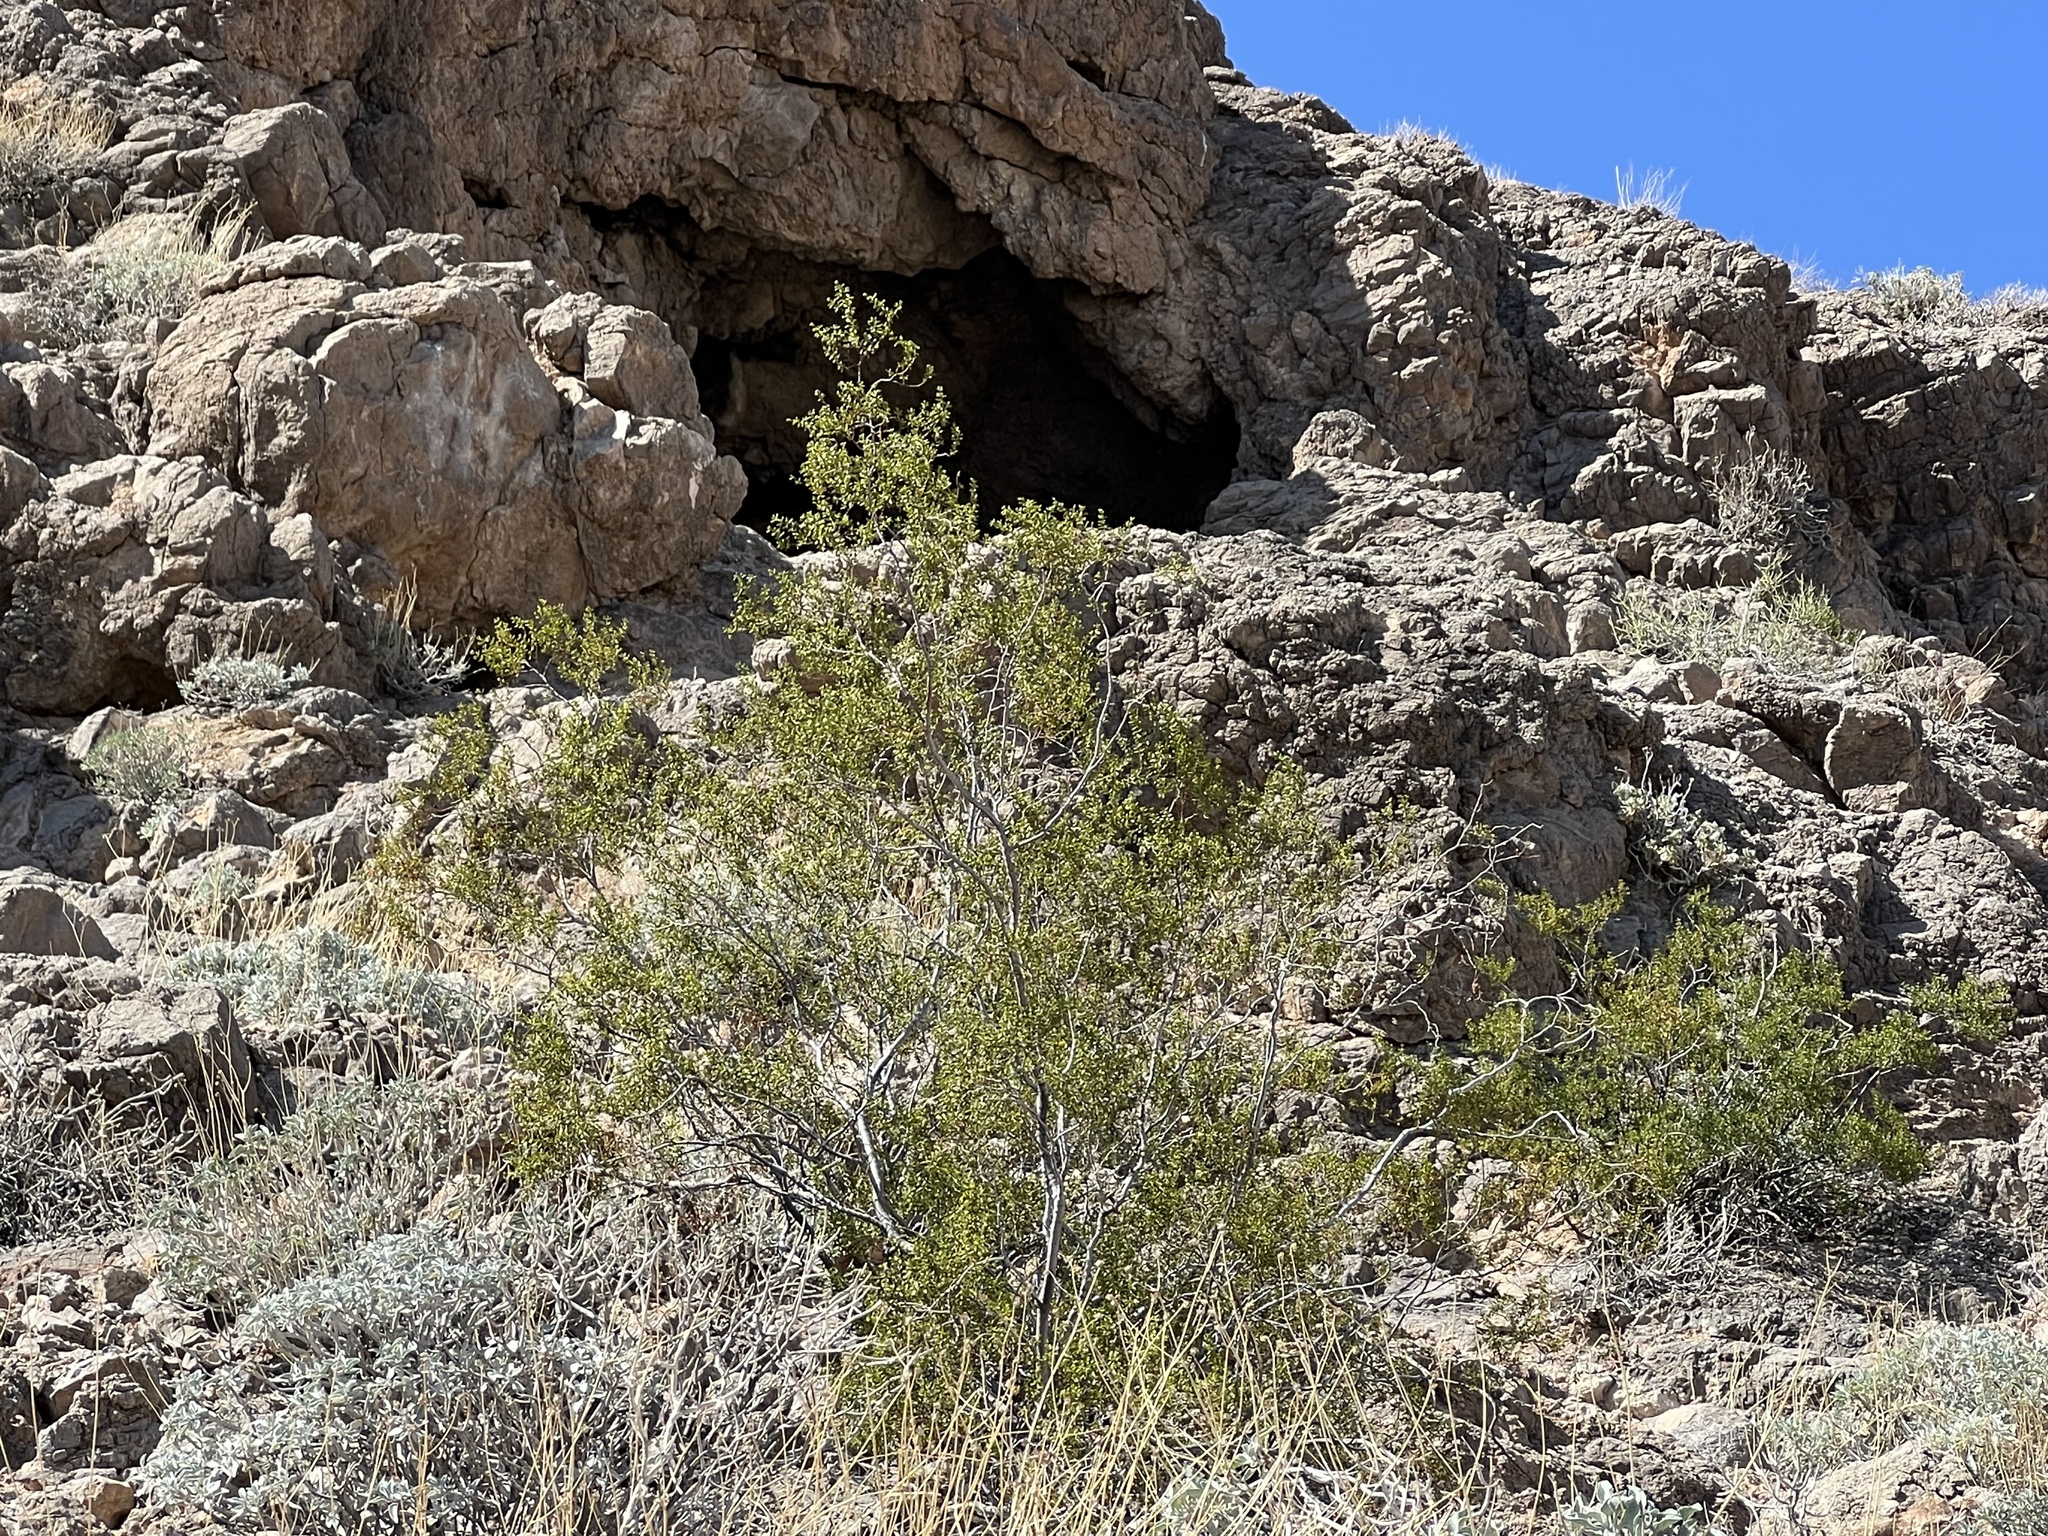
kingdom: Plantae
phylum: Tracheophyta
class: Magnoliopsida
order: Zygophyllales
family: Zygophyllaceae
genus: Larrea
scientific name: Larrea tridentata
